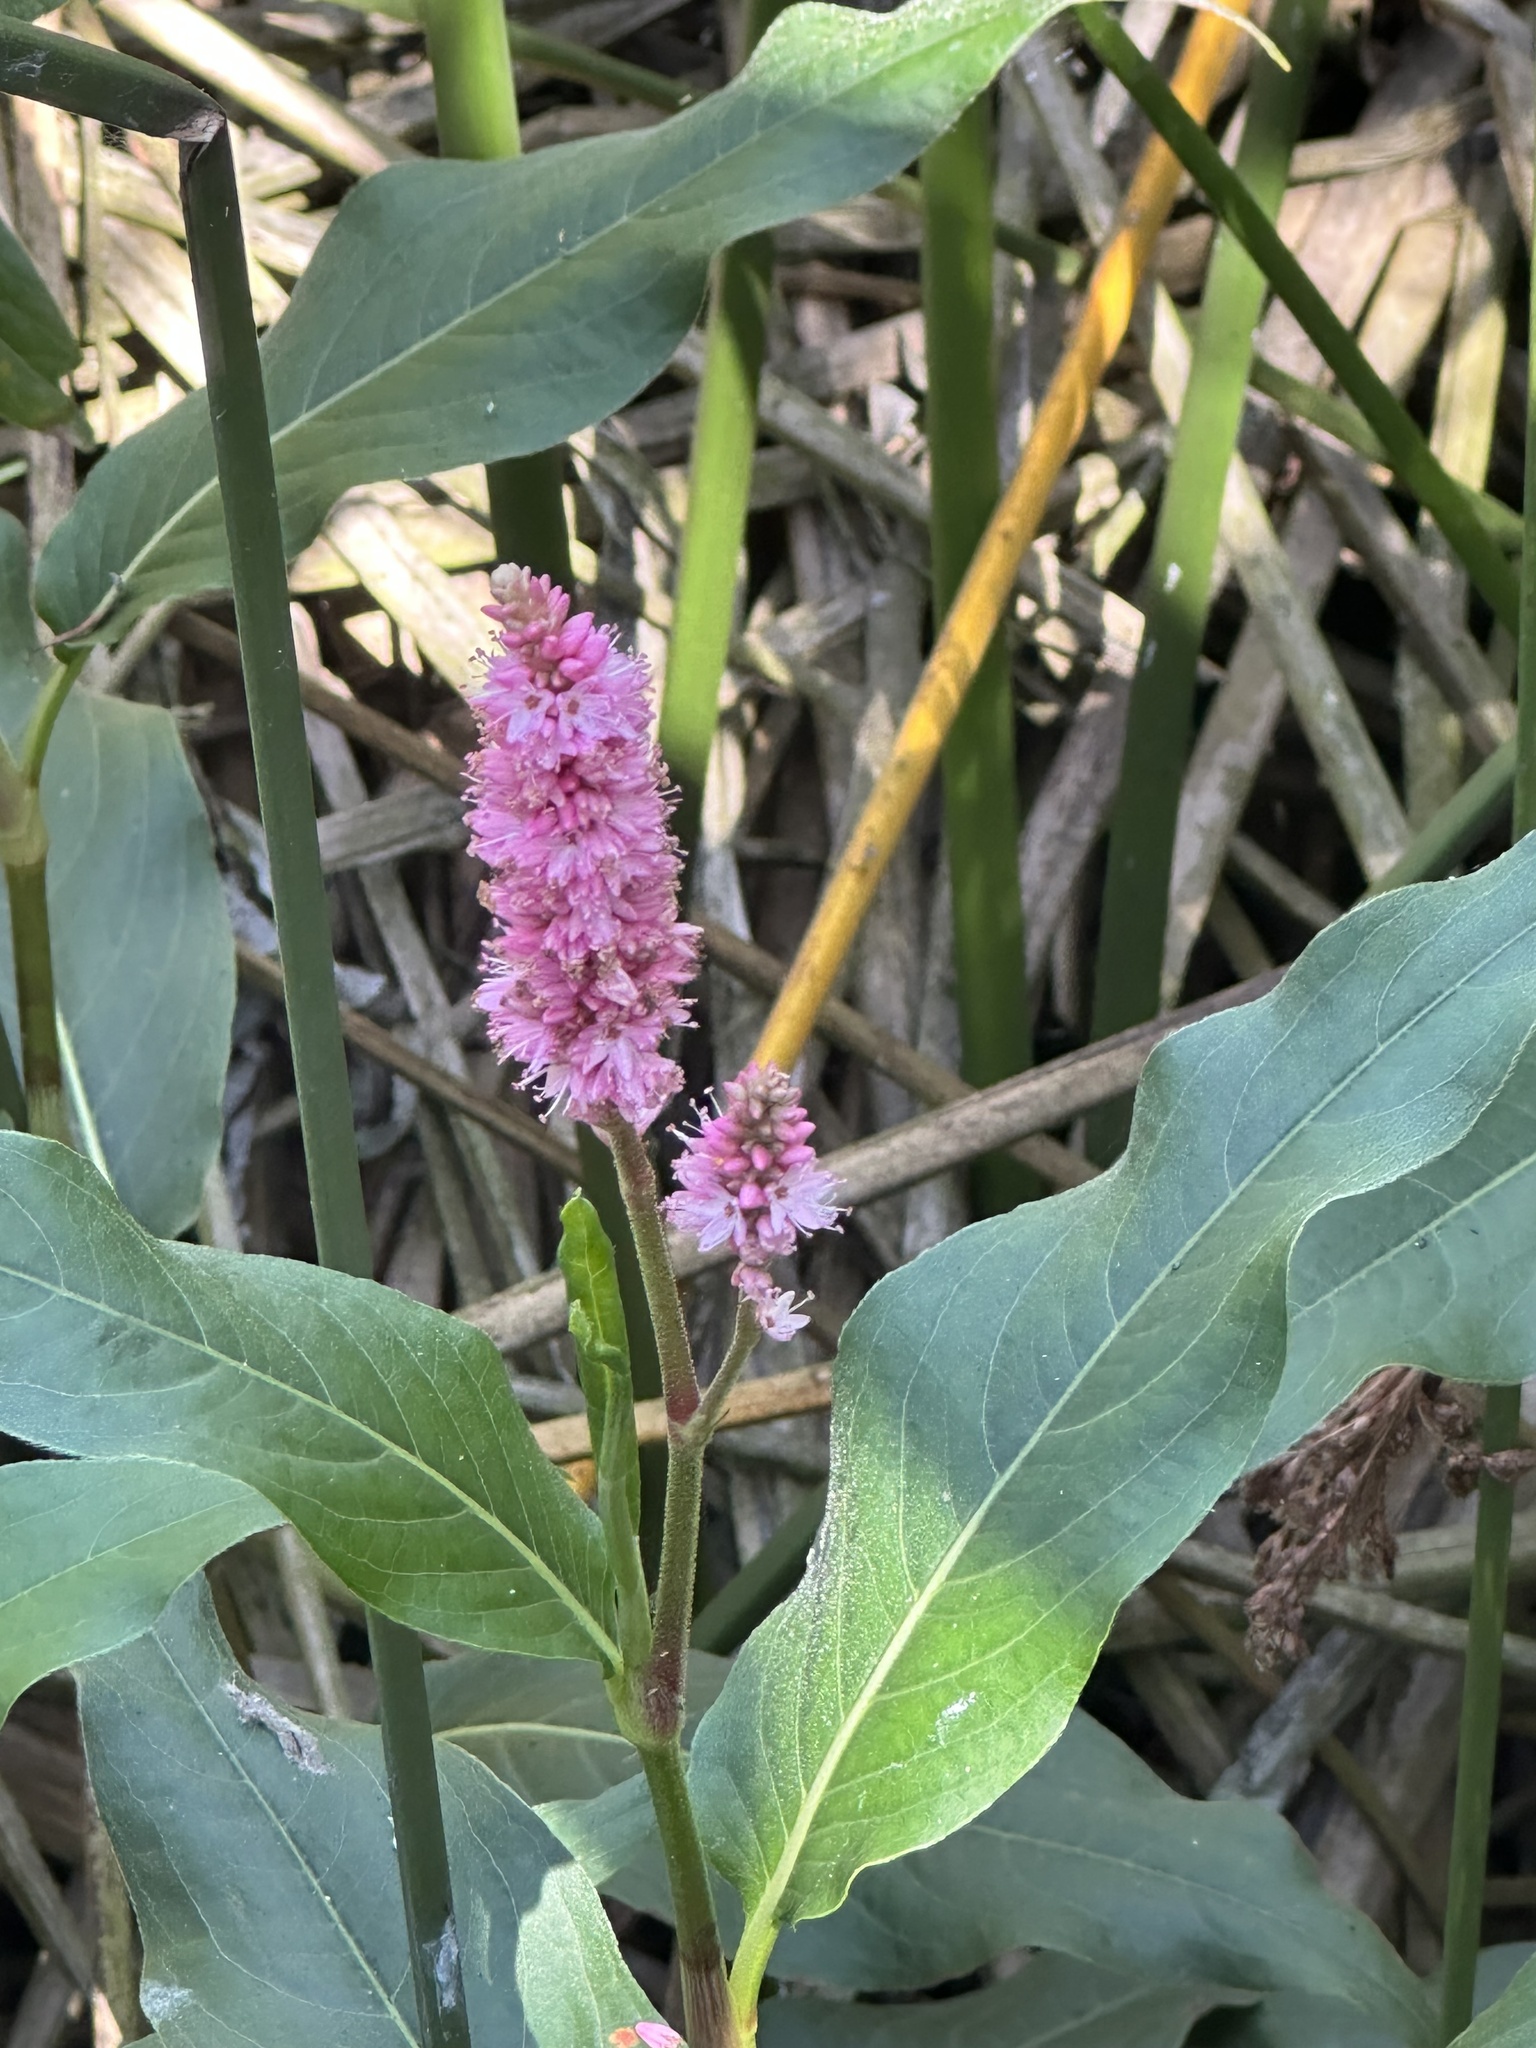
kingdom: Plantae
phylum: Tracheophyta
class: Magnoliopsida
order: Caryophyllales
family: Polygonaceae
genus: Persicaria
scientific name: Persicaria amphibia
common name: Amphibious bistort
